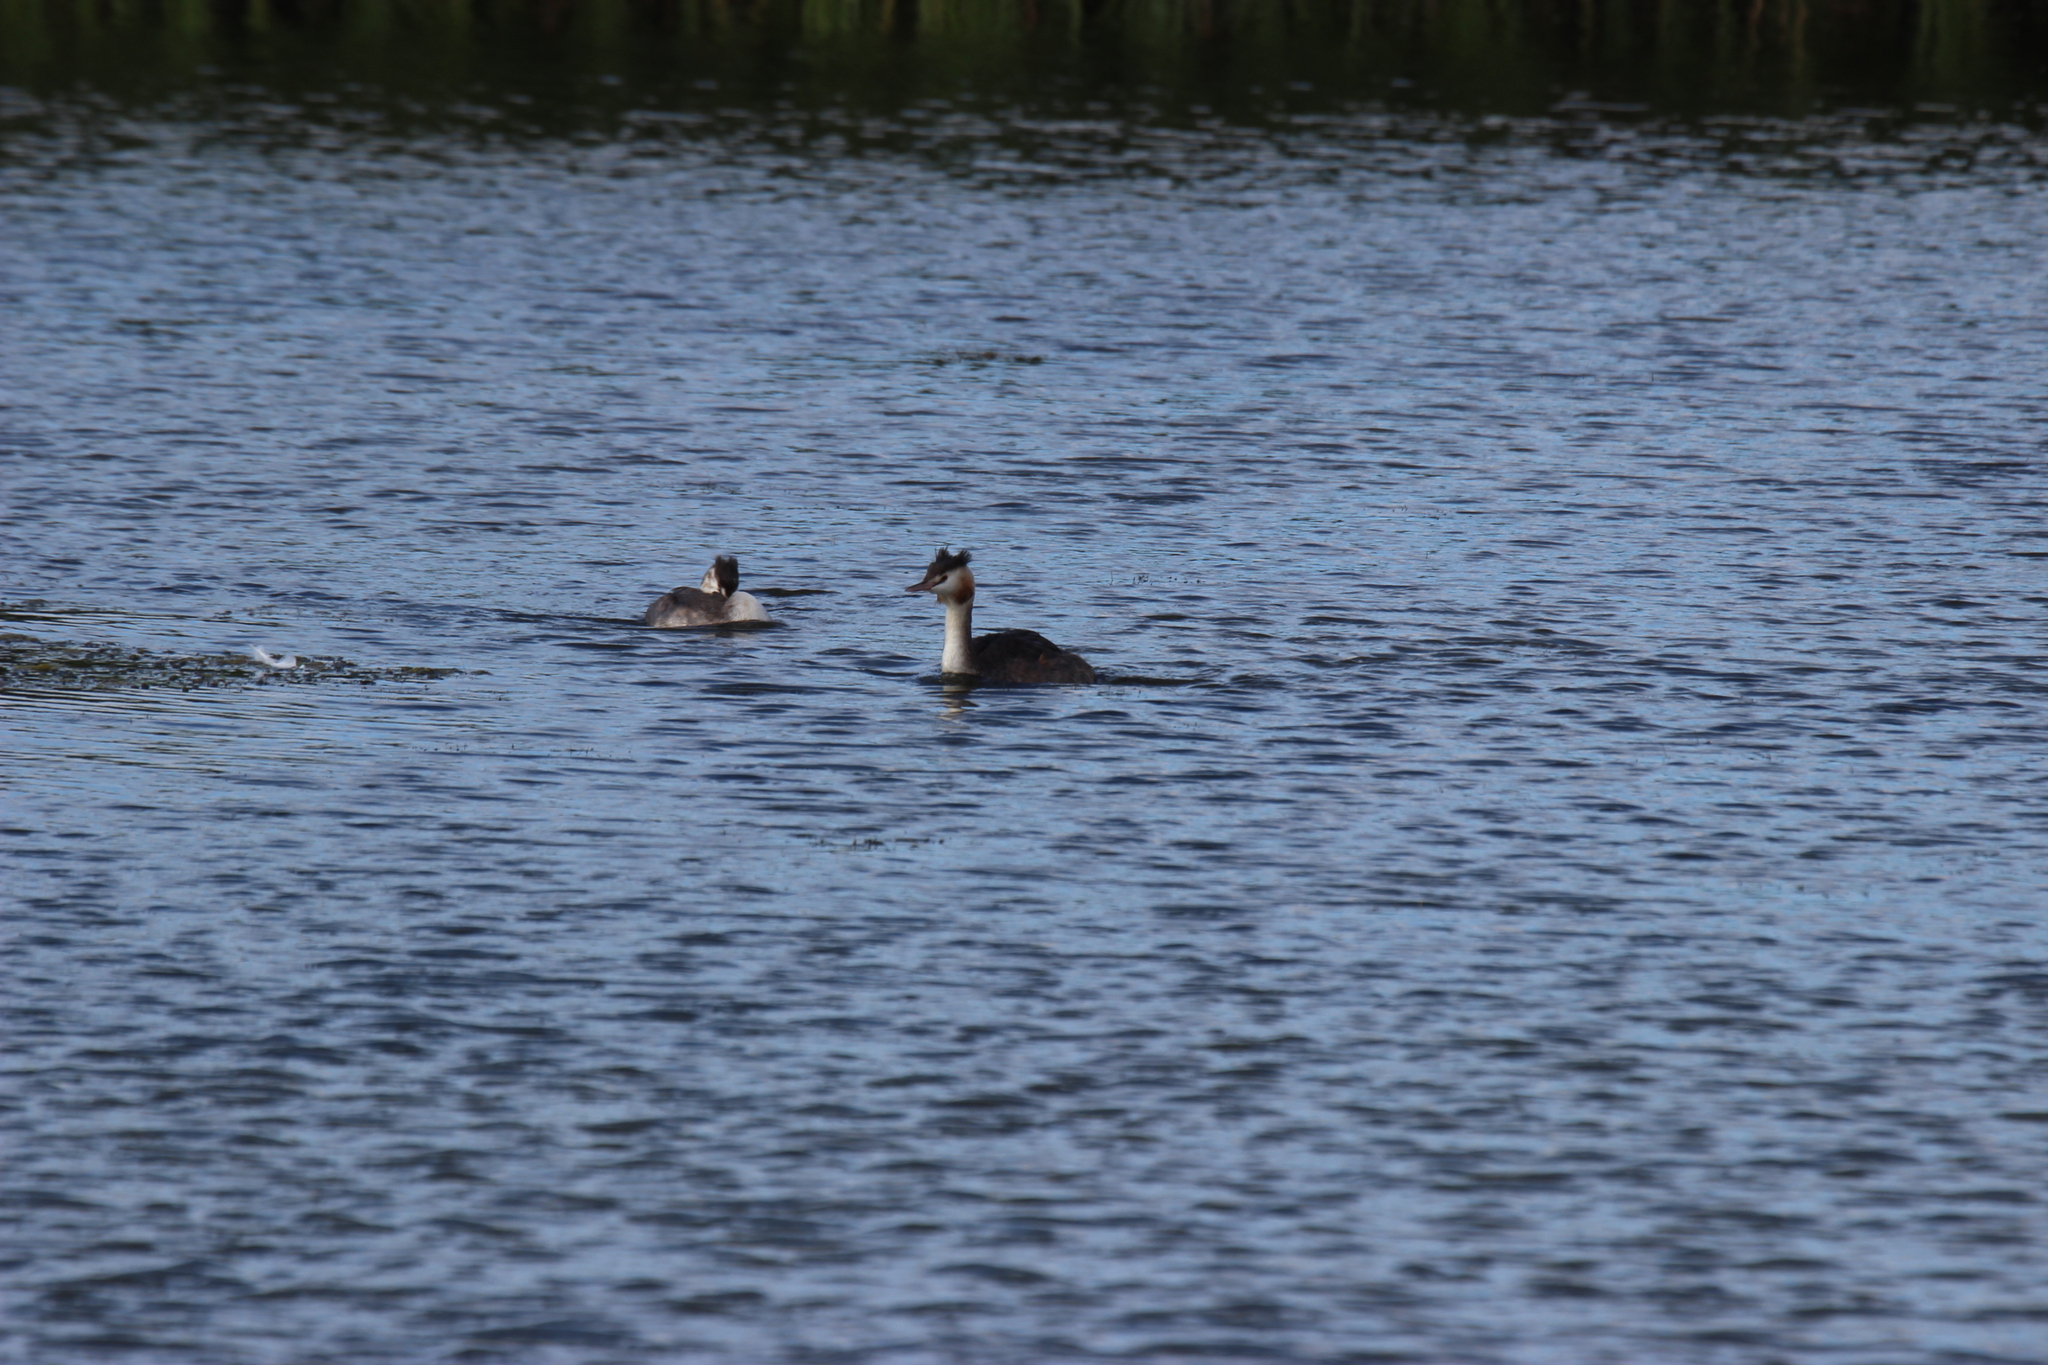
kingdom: Animalia
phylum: Chordata
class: Aves
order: Podicipediformes
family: Podicipedidae
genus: Podiceps
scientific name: Podiceps cristatus
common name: Great crested grebe
